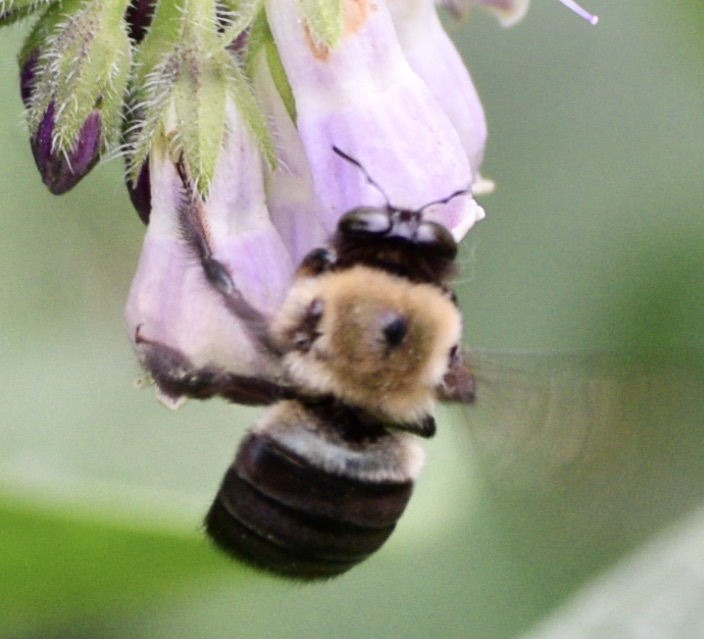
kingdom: Animalia
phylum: Arthropoda
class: Insecta
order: Hymenoptera
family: Apidae
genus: Xylocopa
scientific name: Xylocopa virginica
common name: Carpenter bee
